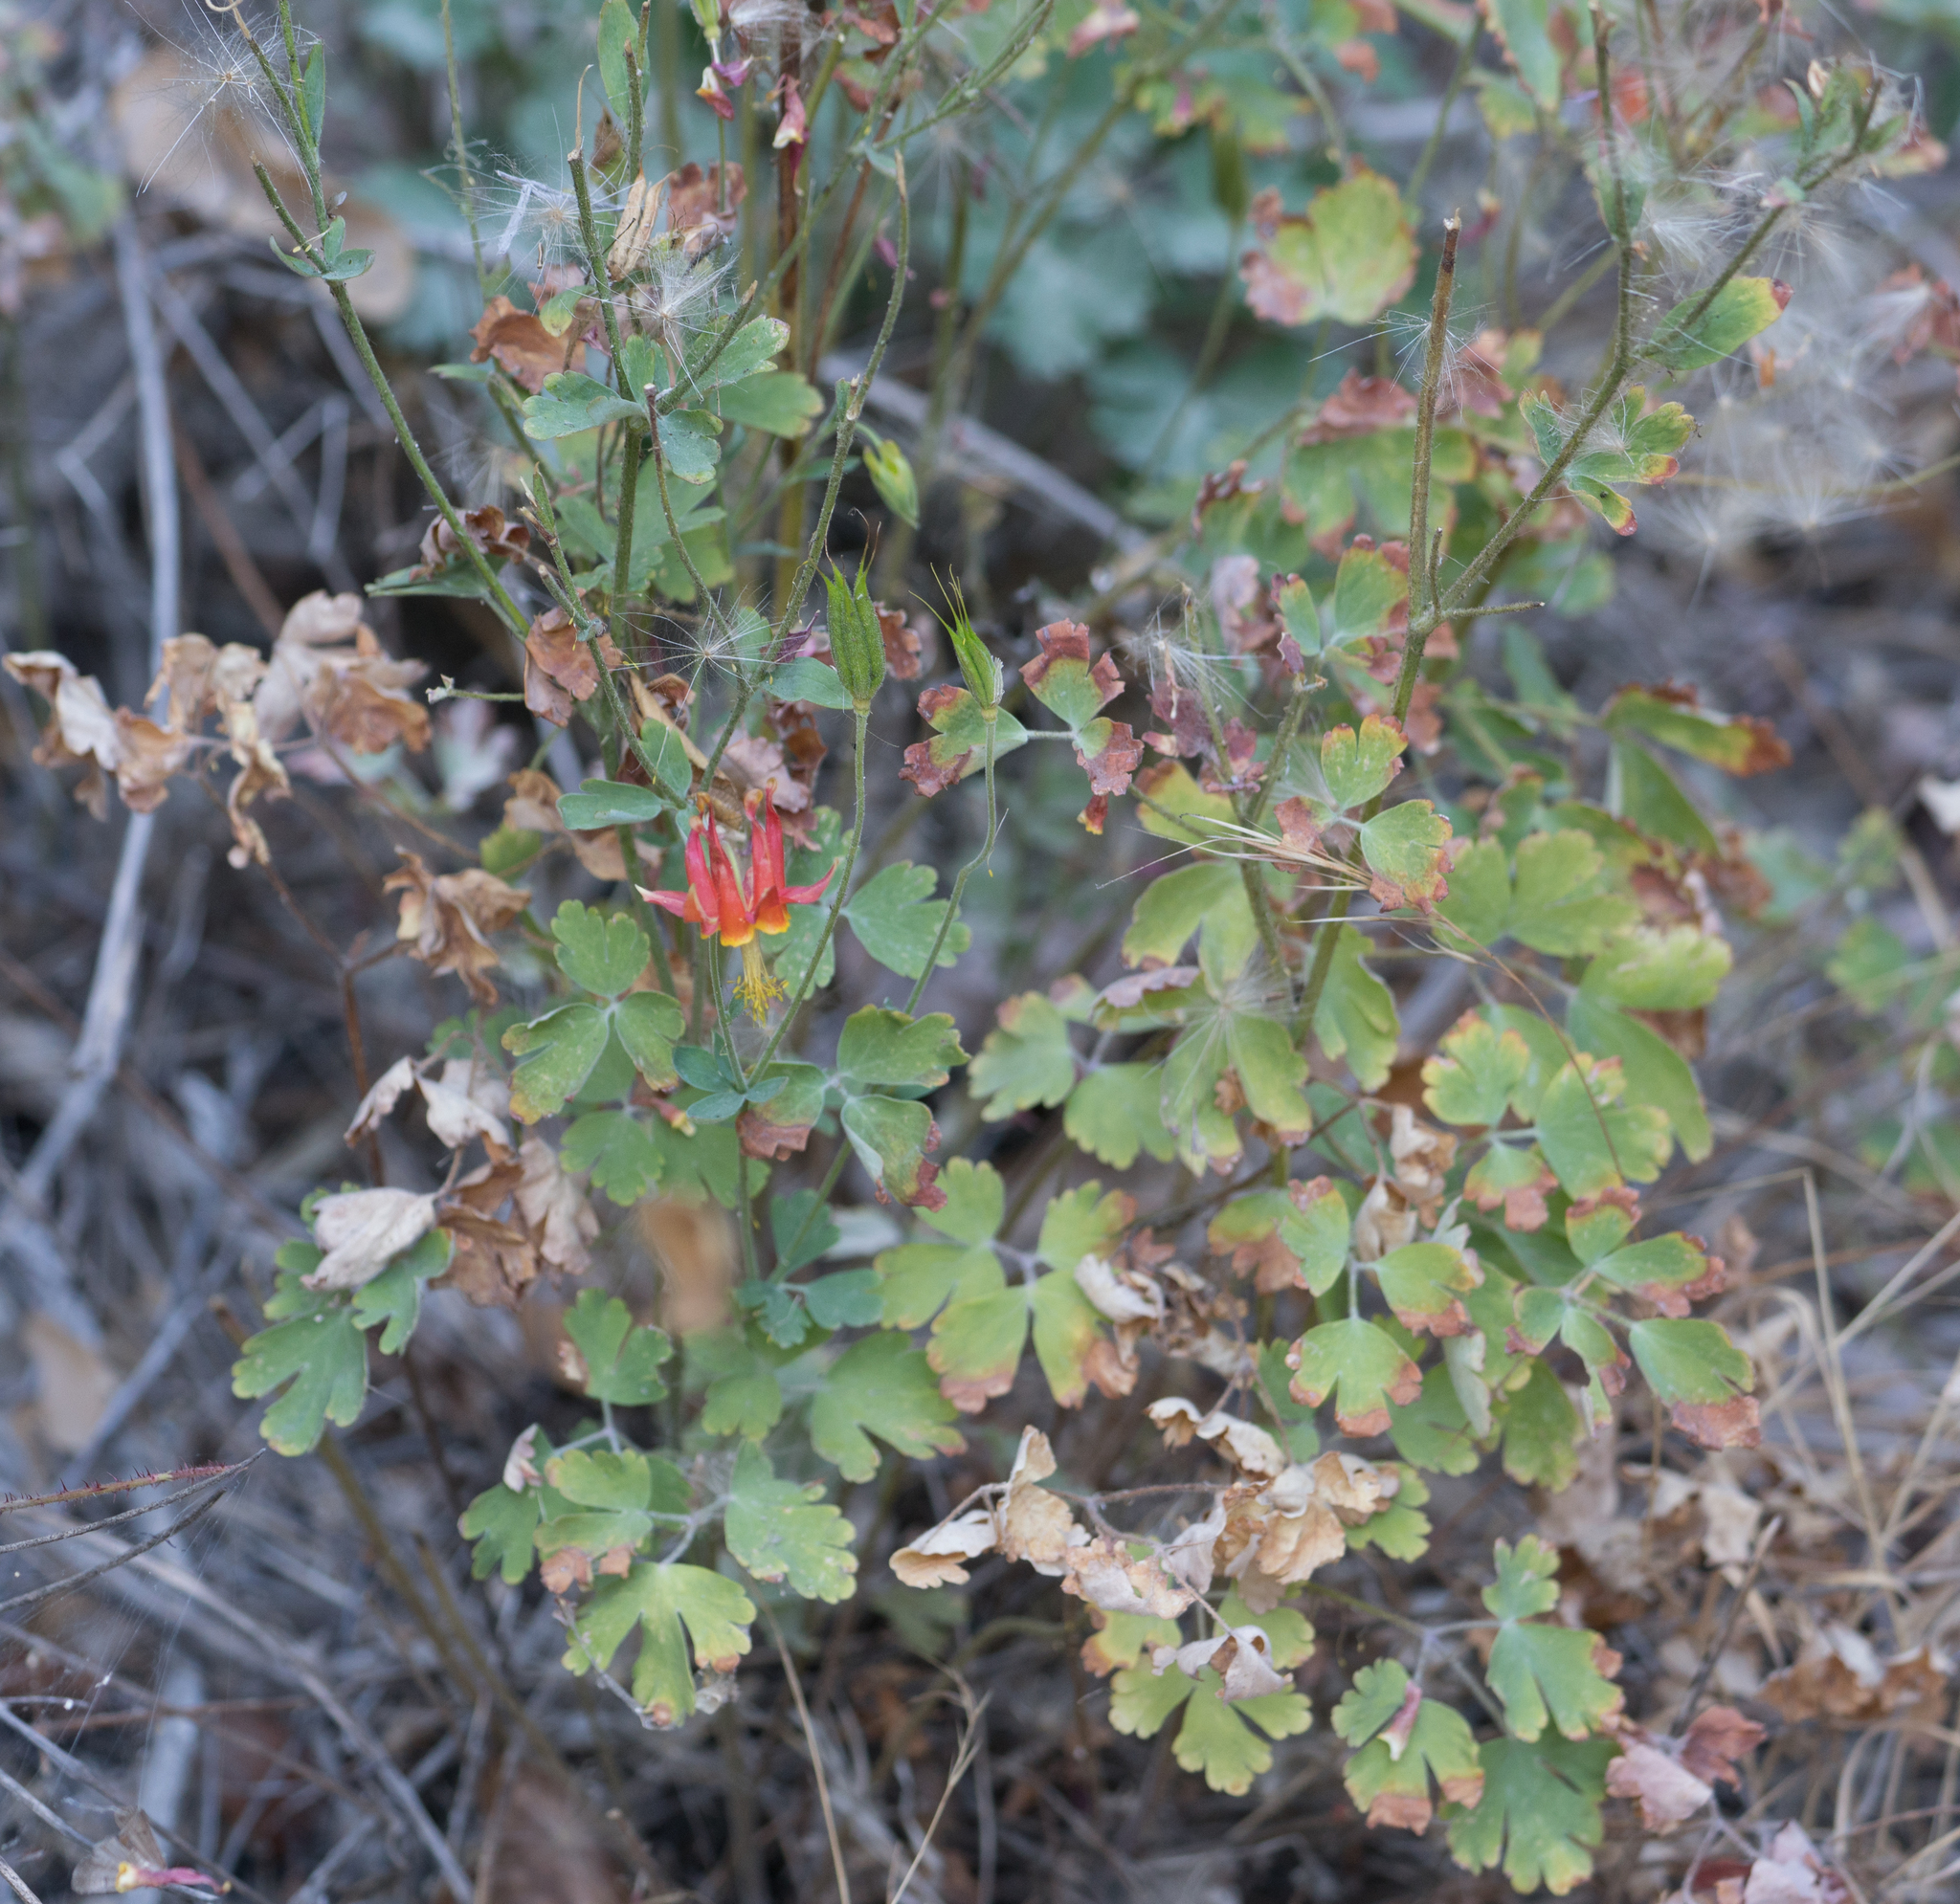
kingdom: Plantae
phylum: Tracheophyta
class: Magnoliopsida
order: Ranunculales
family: Ranunculaceae
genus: Aquilegia
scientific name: Aquilegia formosa
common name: Sitka columbine
